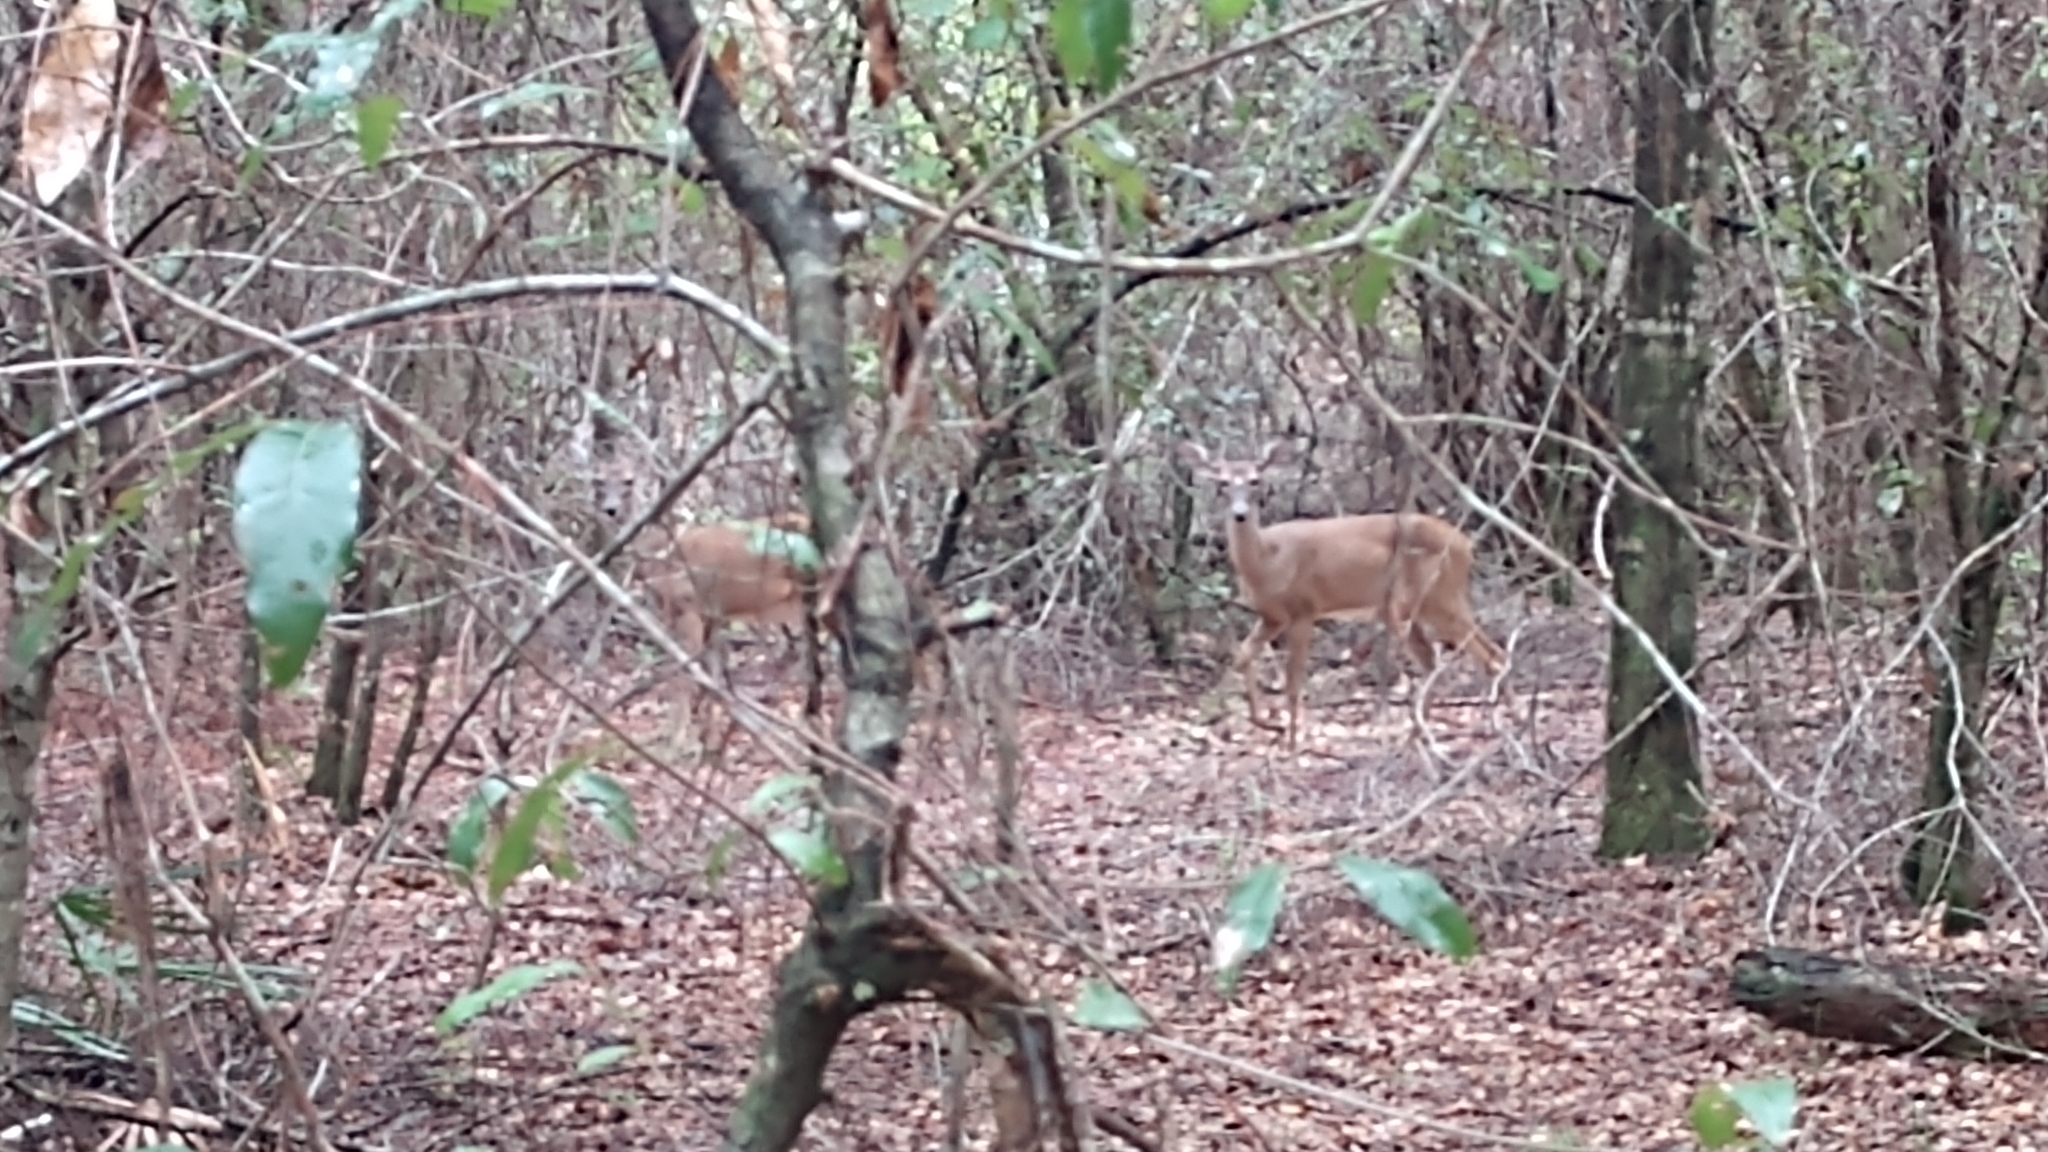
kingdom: Animalia
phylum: Chordata
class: Mammalia
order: Artiodactyla
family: Cervidae
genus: Odocoileus
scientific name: Odocoileus virginianus
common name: White-tailed deer
